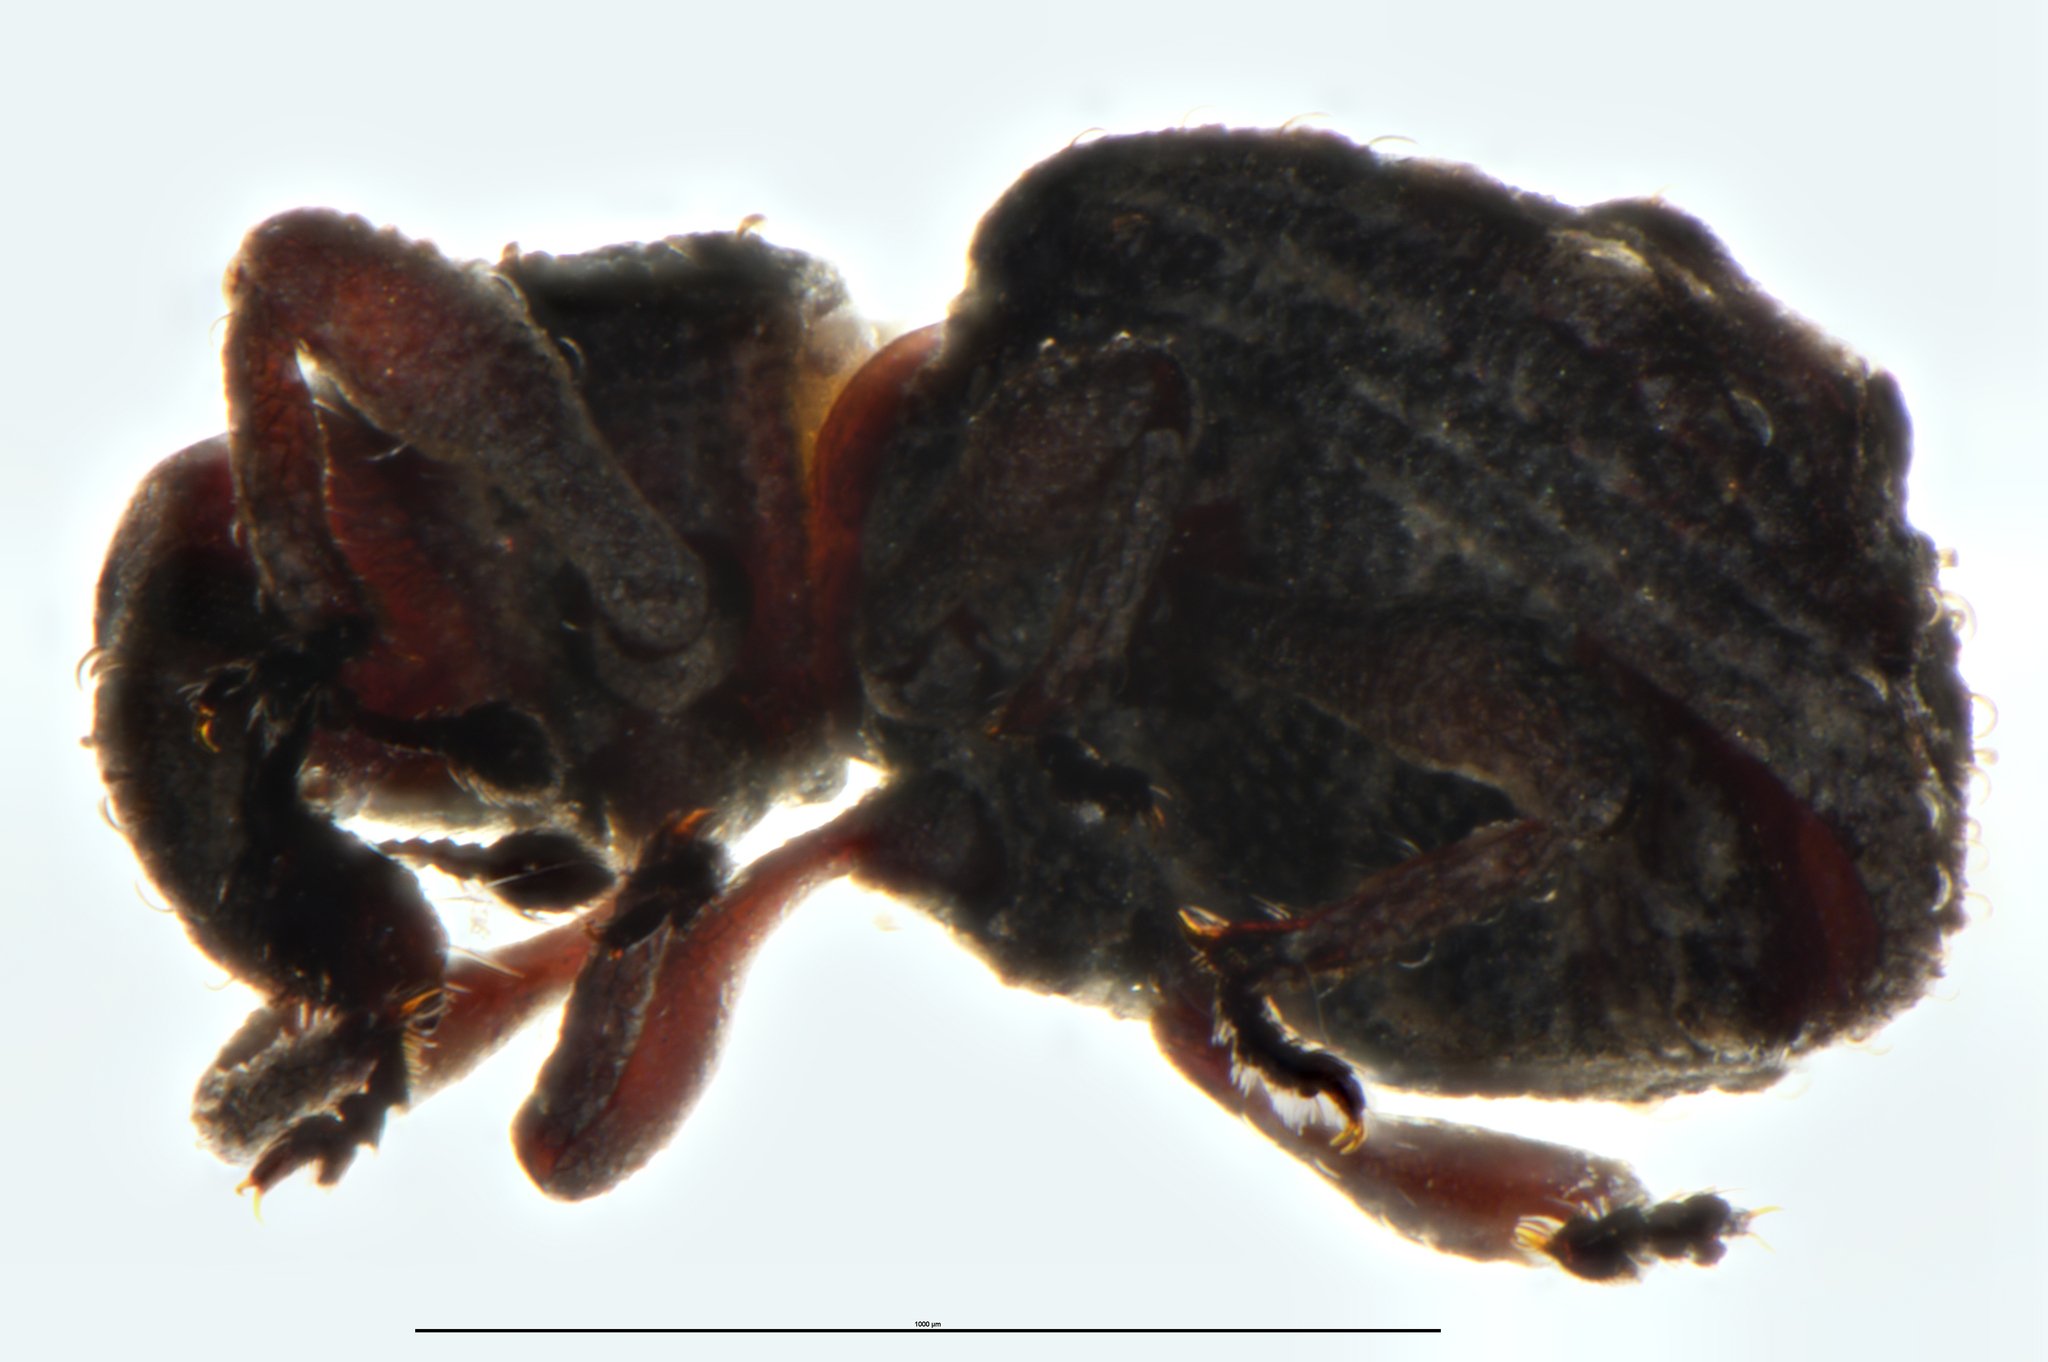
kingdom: Animalia
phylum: Arthropoda
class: Insecta
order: Coleoptera
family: Brachyceridae
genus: Baeosomus
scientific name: Baeosomus
